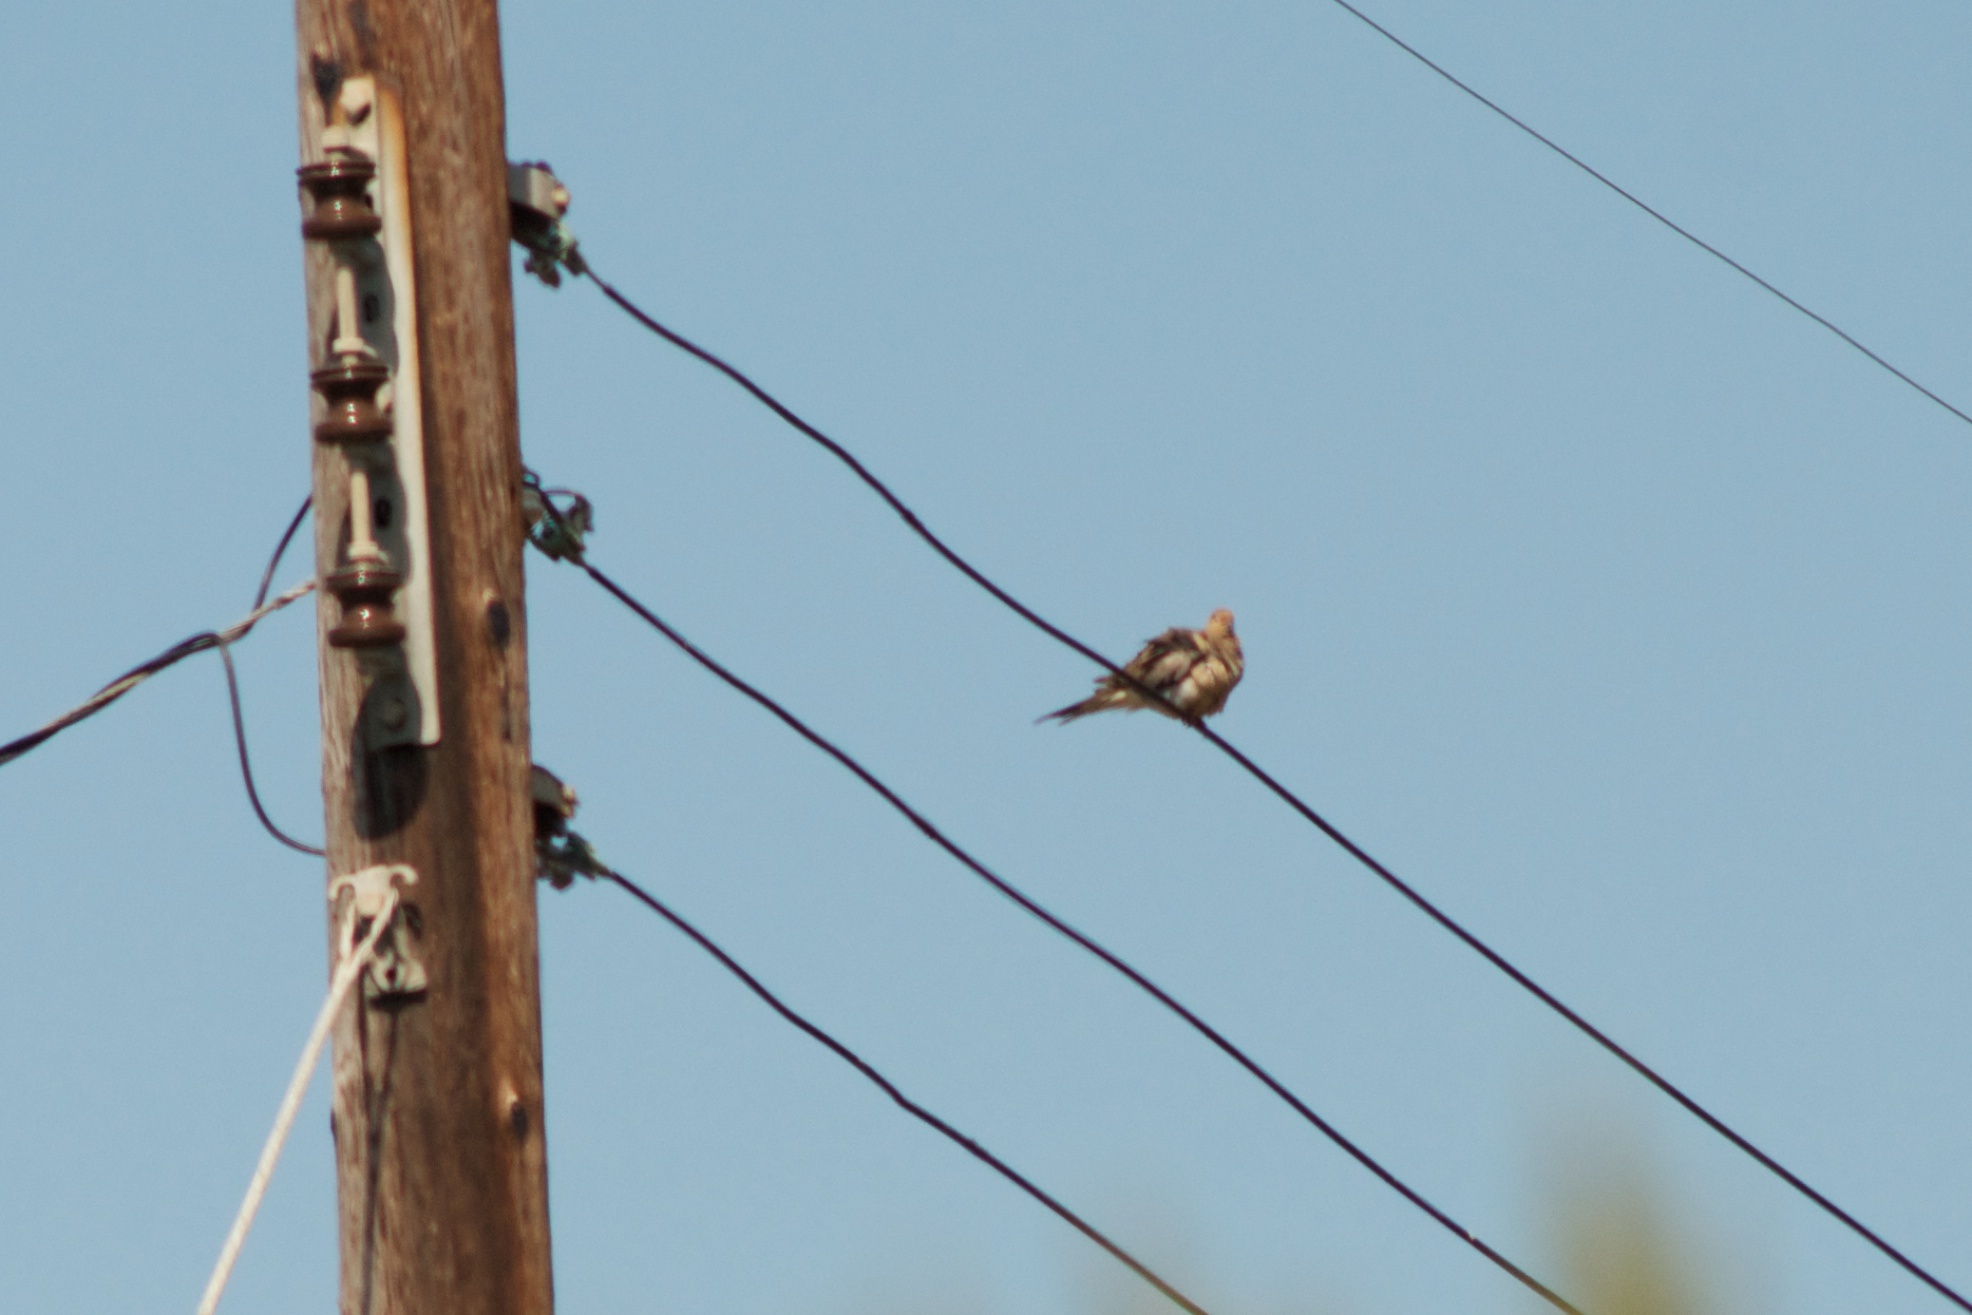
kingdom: Animalia
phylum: Chordata
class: Aves
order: Columbiformes
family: Columbidae
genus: Zenaida
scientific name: Zenaida macroura
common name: Mourning dove
